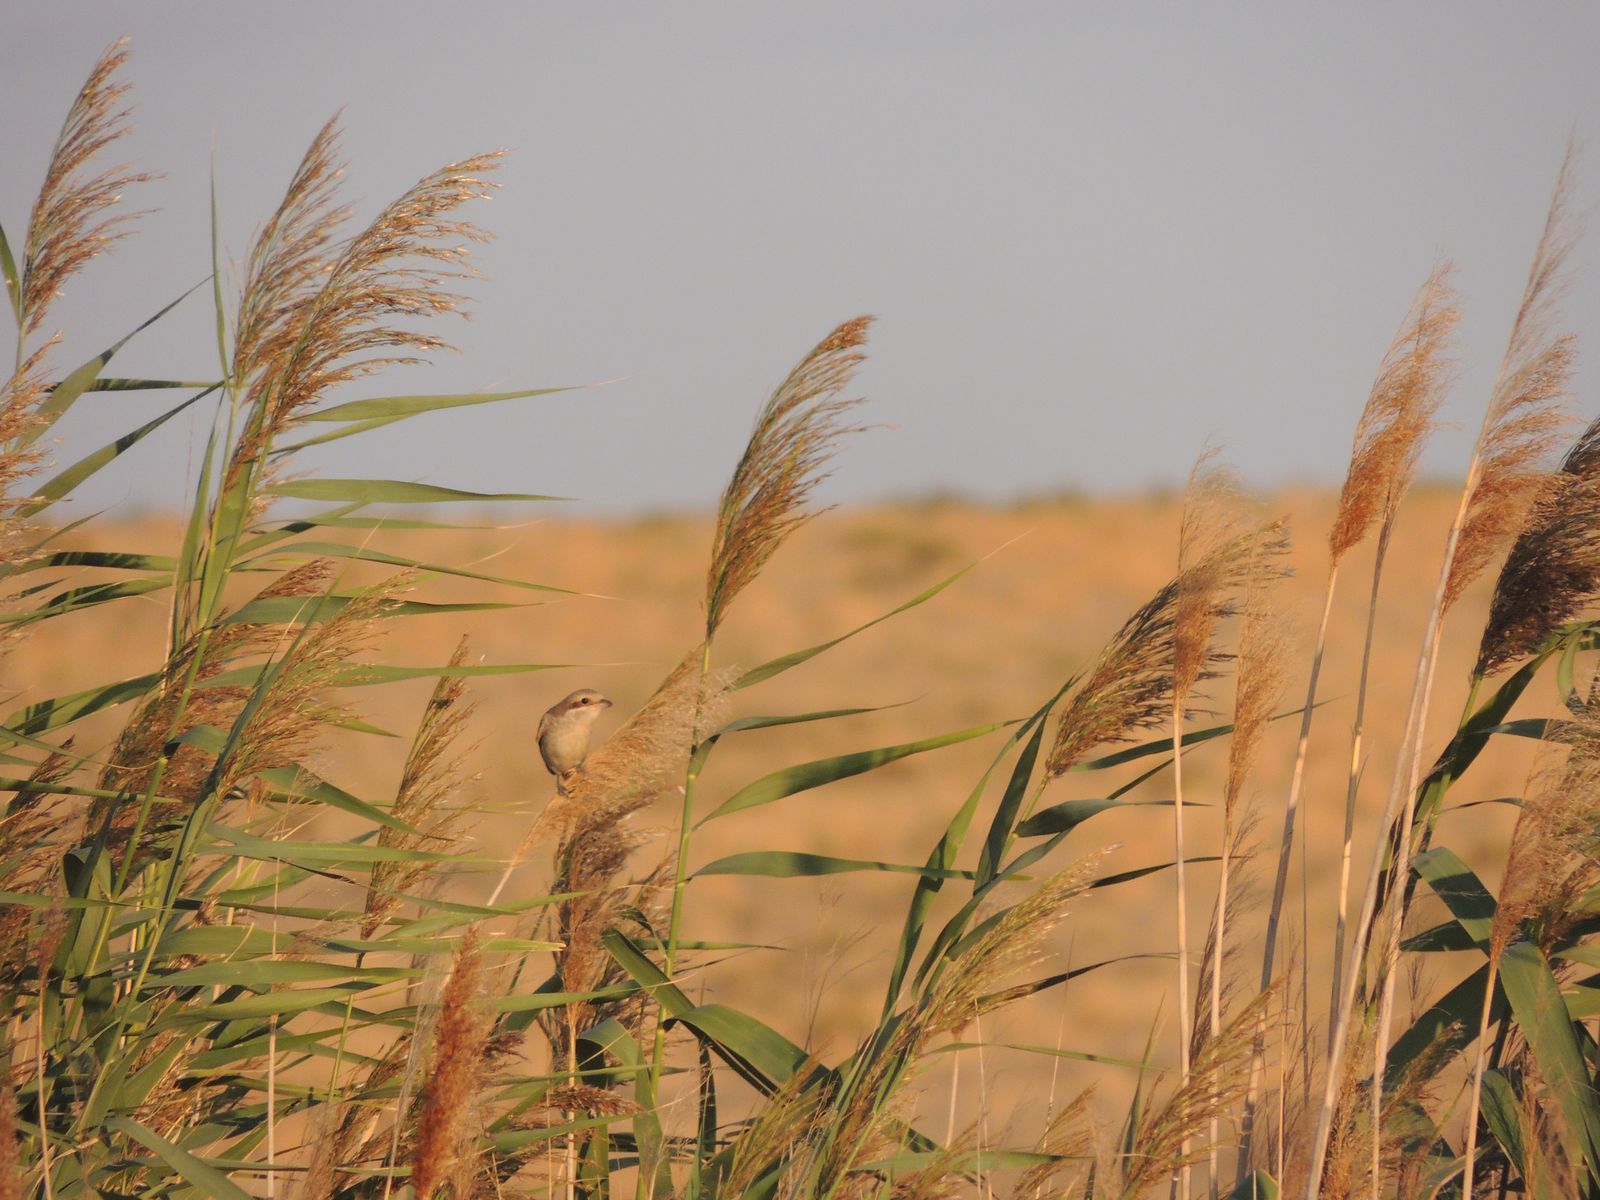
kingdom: Animalia
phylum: Chordata
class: Aves
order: Passeriformes
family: Laniidae
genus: Lanius
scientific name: Lanius collurio
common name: Red-backed shrike
